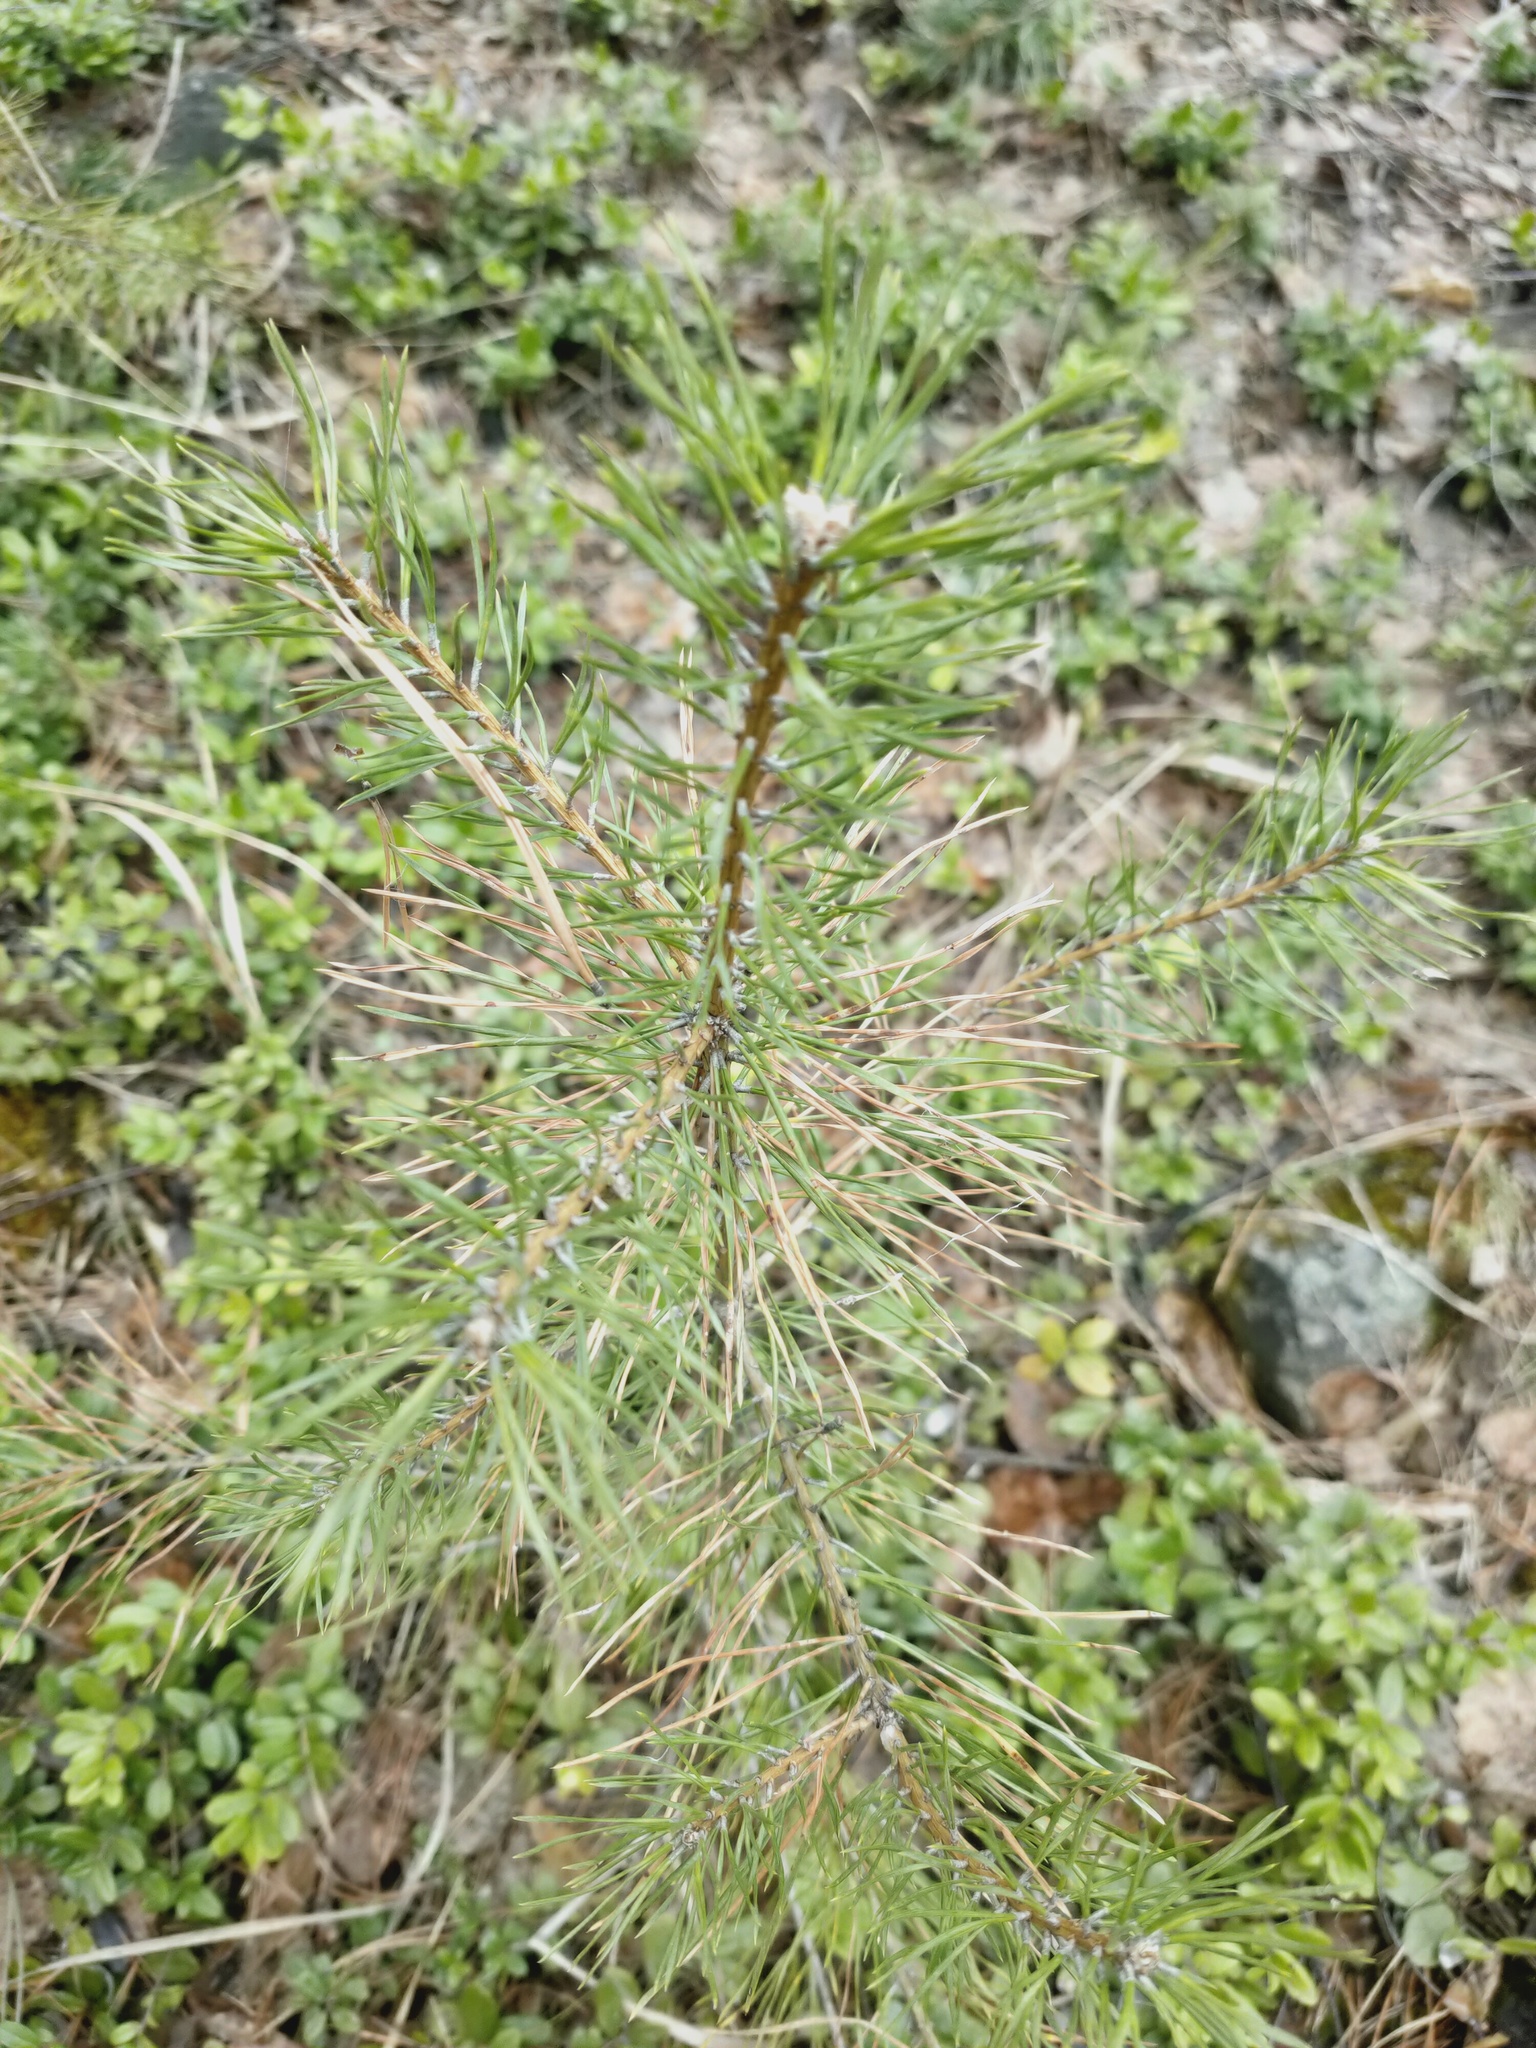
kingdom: Plantae
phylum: Tracheophyta
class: Pinopsida
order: Pinales
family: Pinaceae
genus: Pinus
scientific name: Pinus sylvestris
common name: Scots pine
